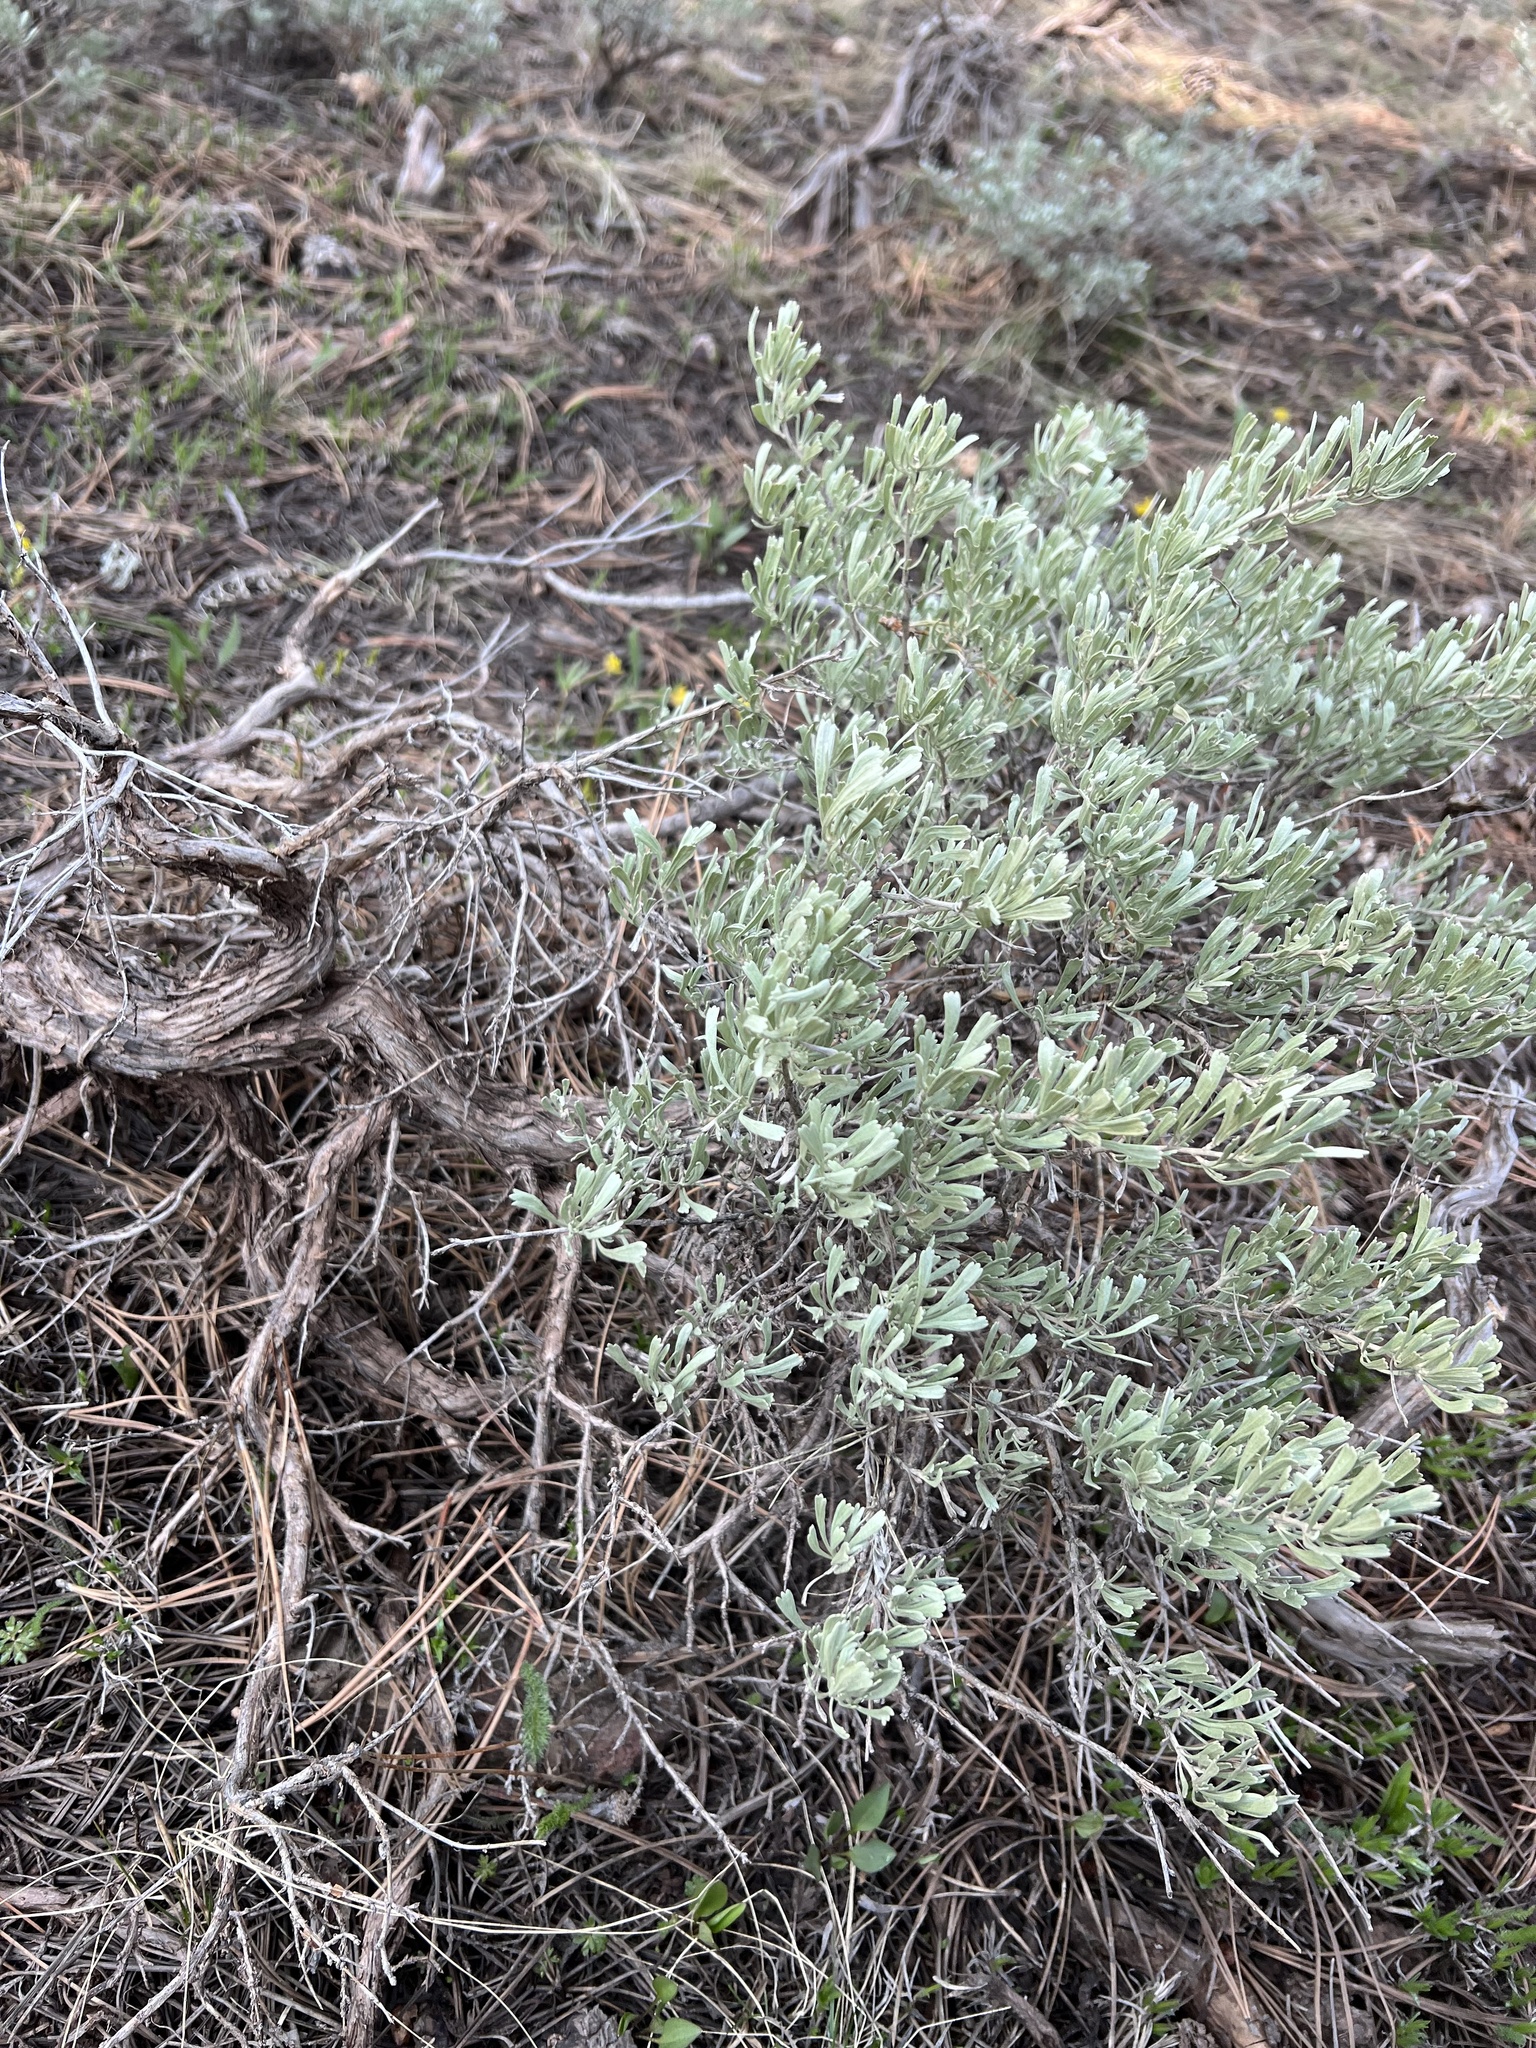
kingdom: Plantae
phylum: Tracheophyta
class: Magnoliopsida
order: Asterales
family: Asteraceae
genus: Artemisia
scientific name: Artemisia tridentata
